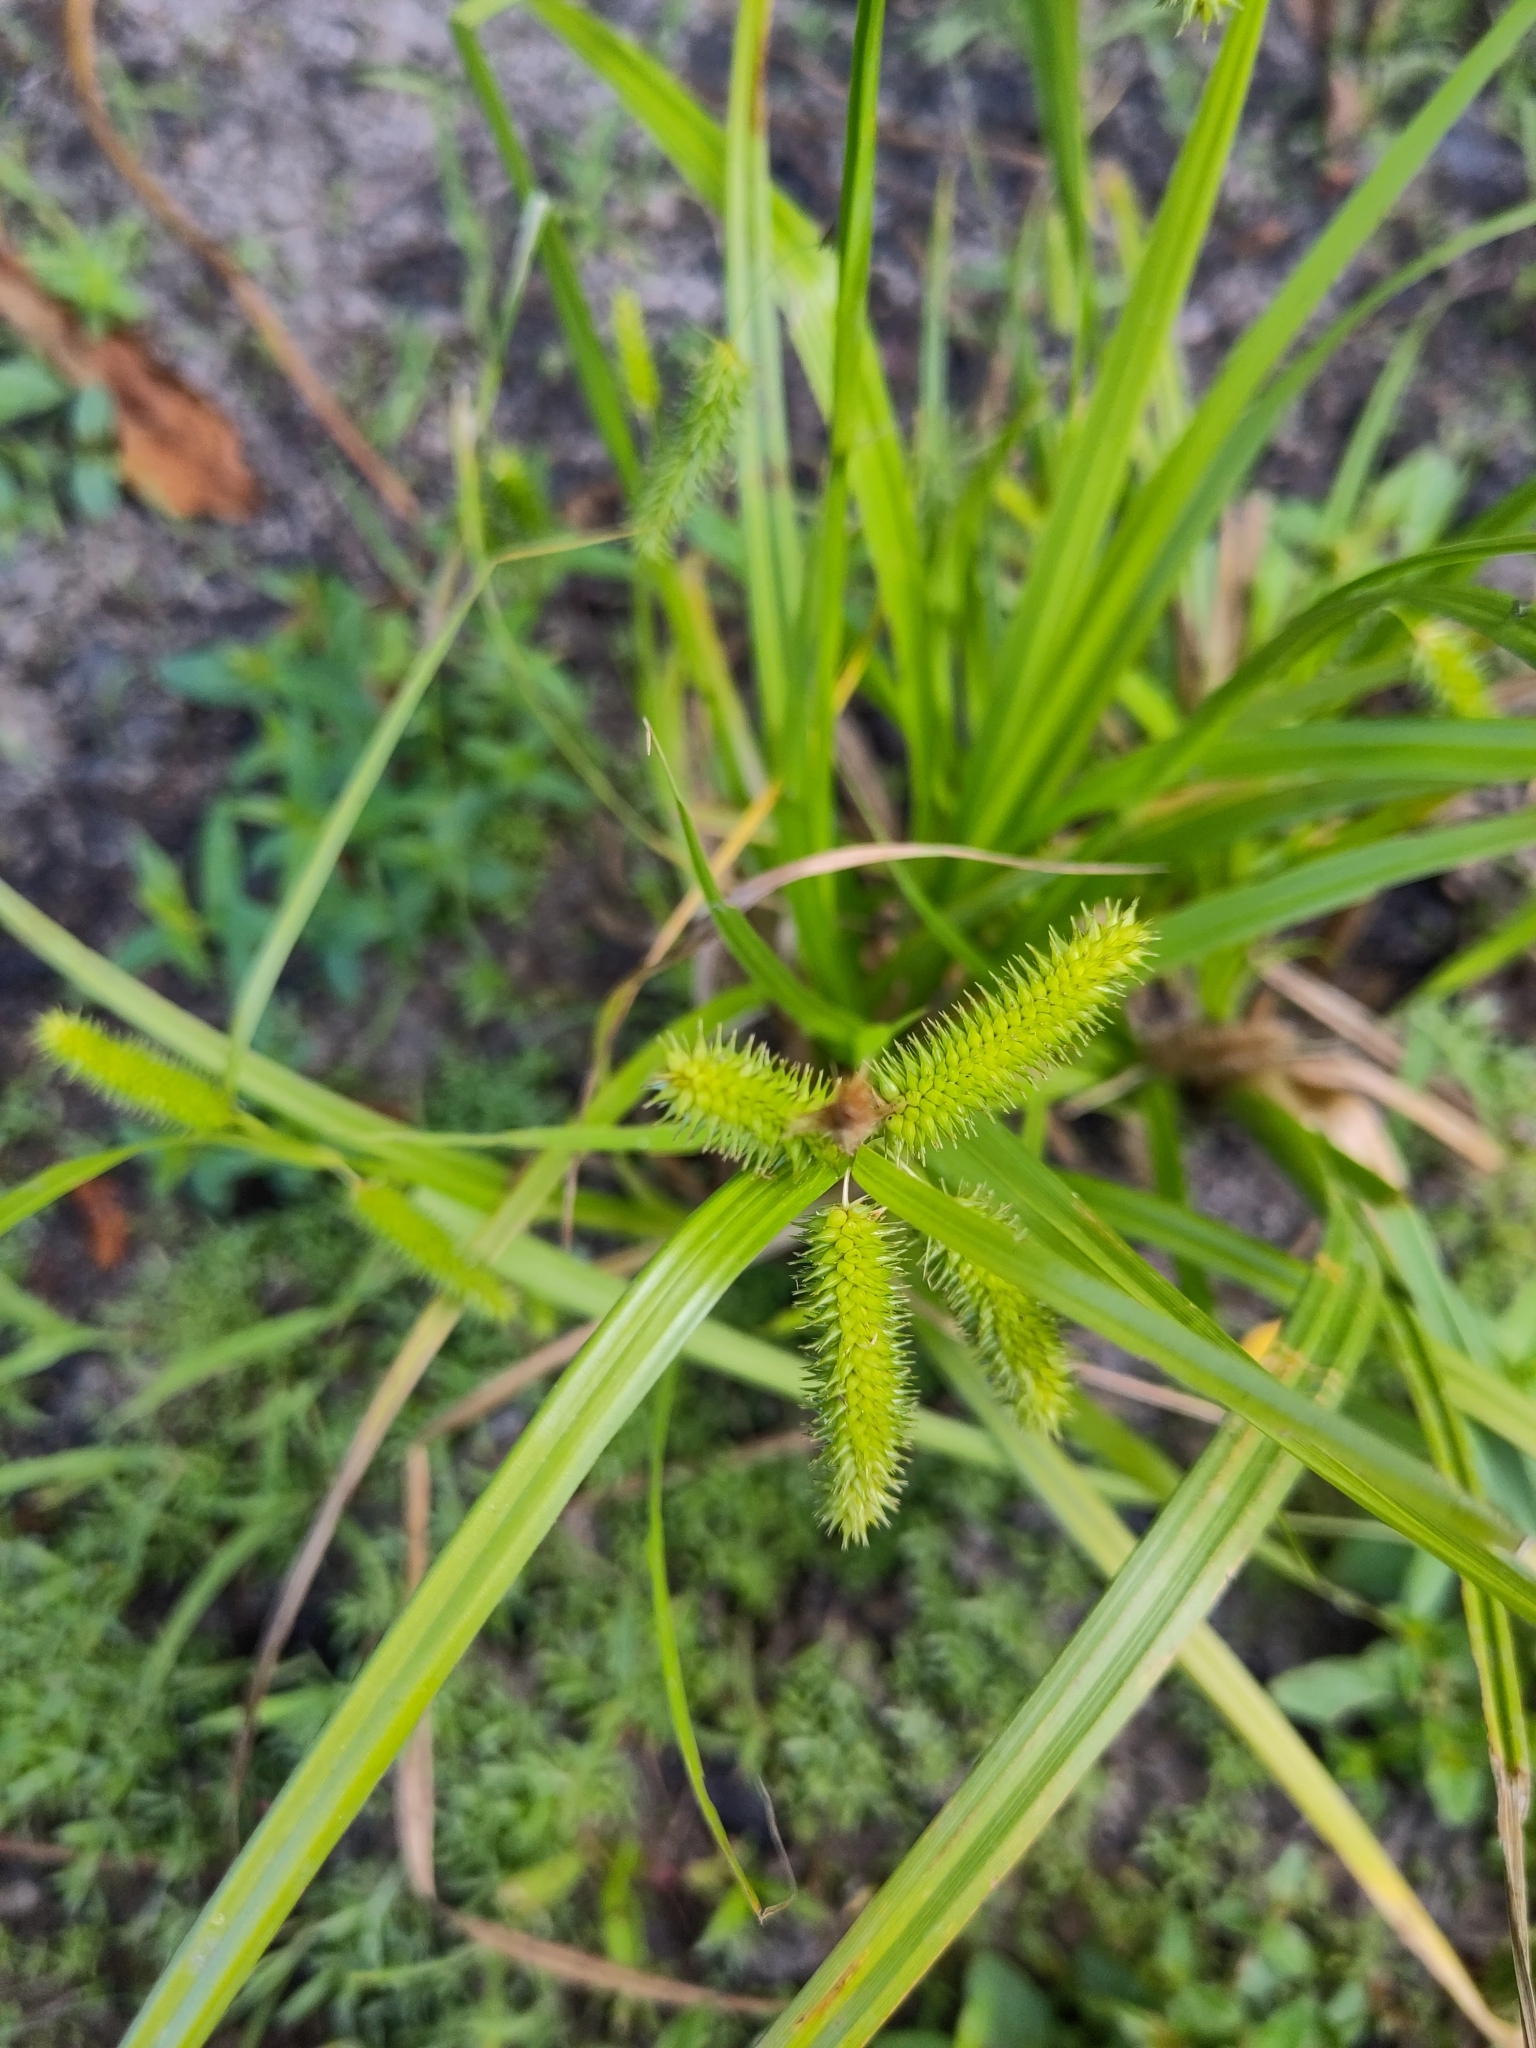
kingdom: Plantae
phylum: Tracheophyta
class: Liliopsida
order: Poales
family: Cyperaceae
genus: Carex
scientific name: Carex pseudocyperus
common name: Cyperus sedge
